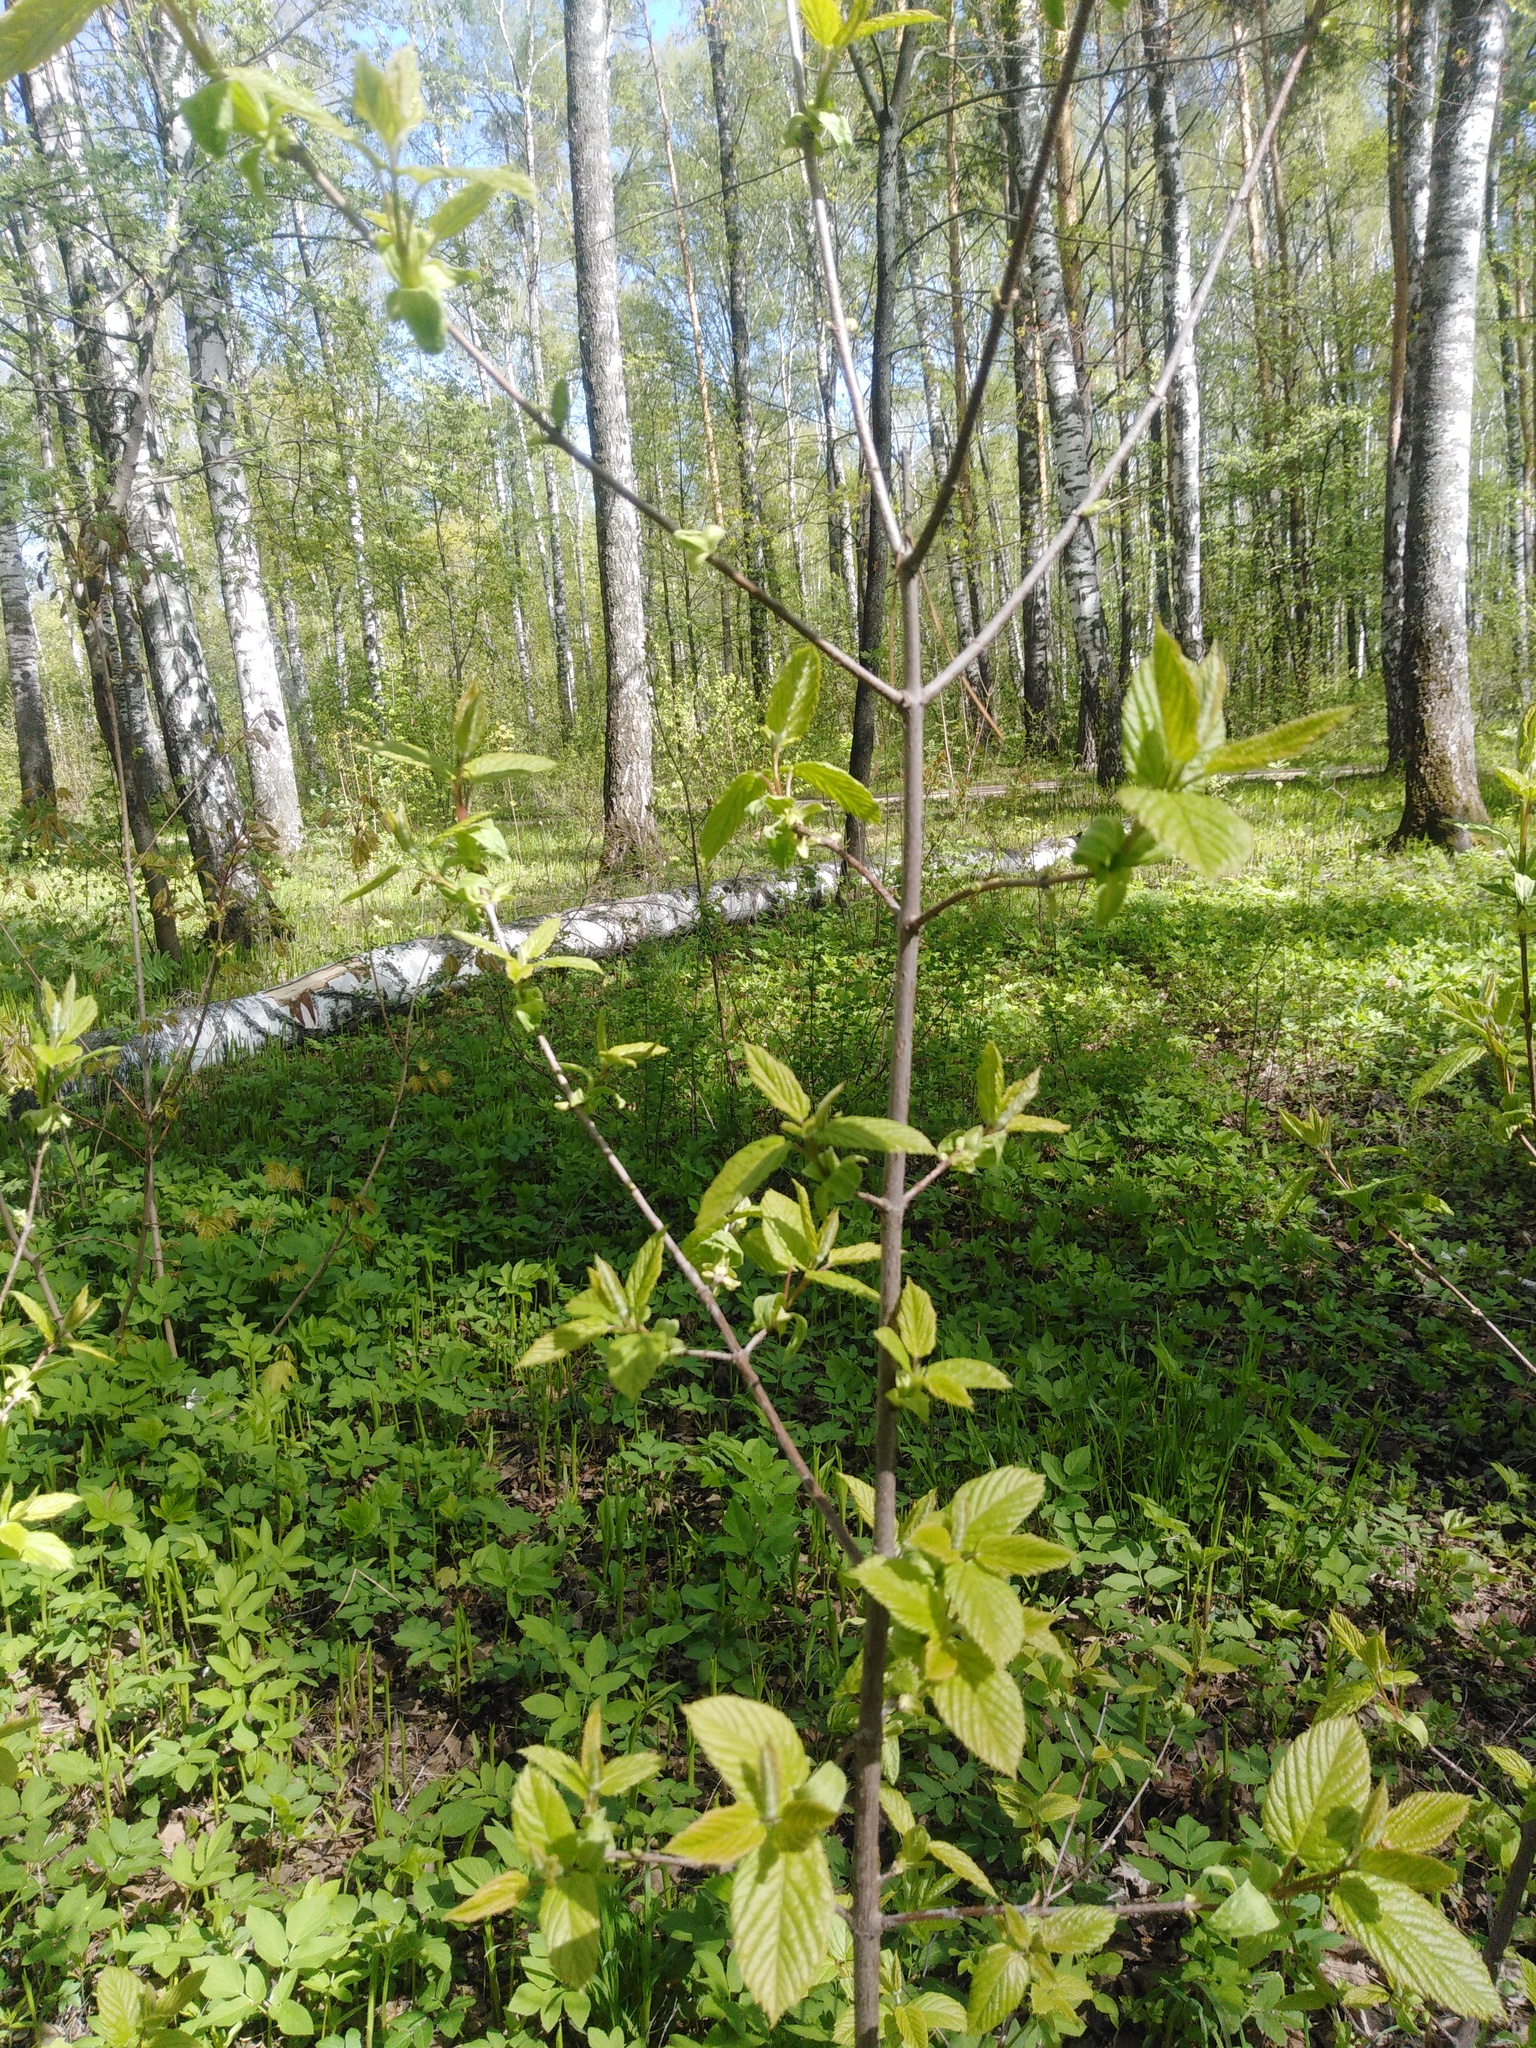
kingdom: Plantae
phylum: Tracheophyta
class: Magnoliopsida
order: Sapindales
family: Sapindaceae
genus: Acer
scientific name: Acer tataricum
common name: Tartar maple
